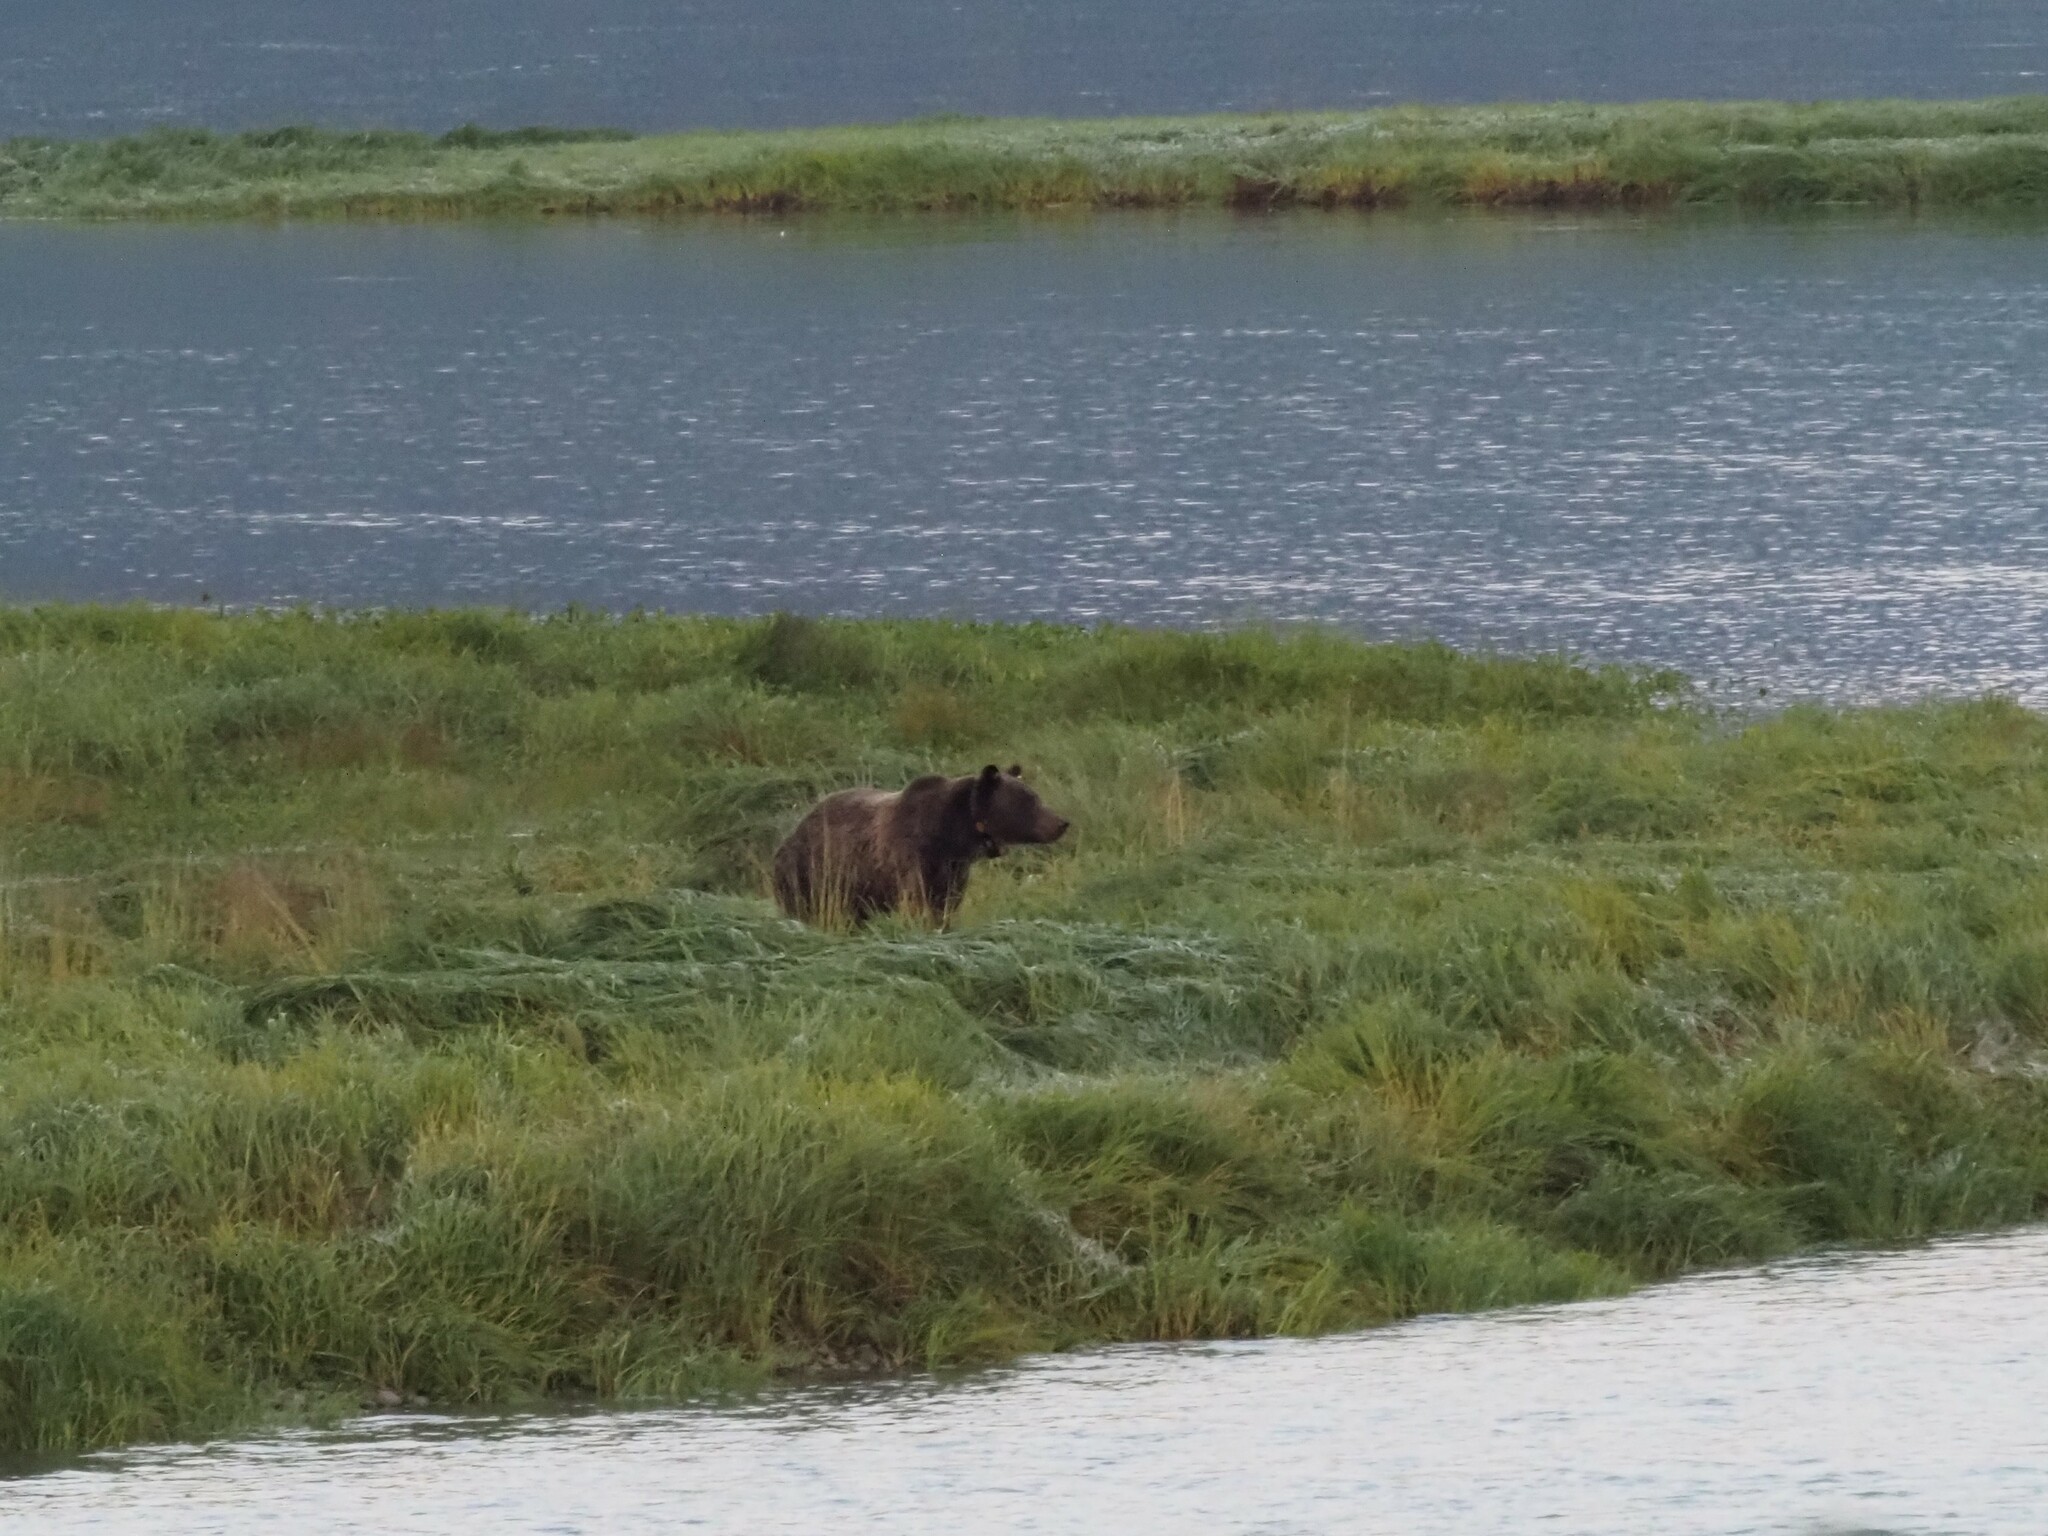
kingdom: Animalia
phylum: Chordata
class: Mammalia
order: Carnivora
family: Ursidae
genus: Ursus
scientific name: Ursus arctos
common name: Brown bear
